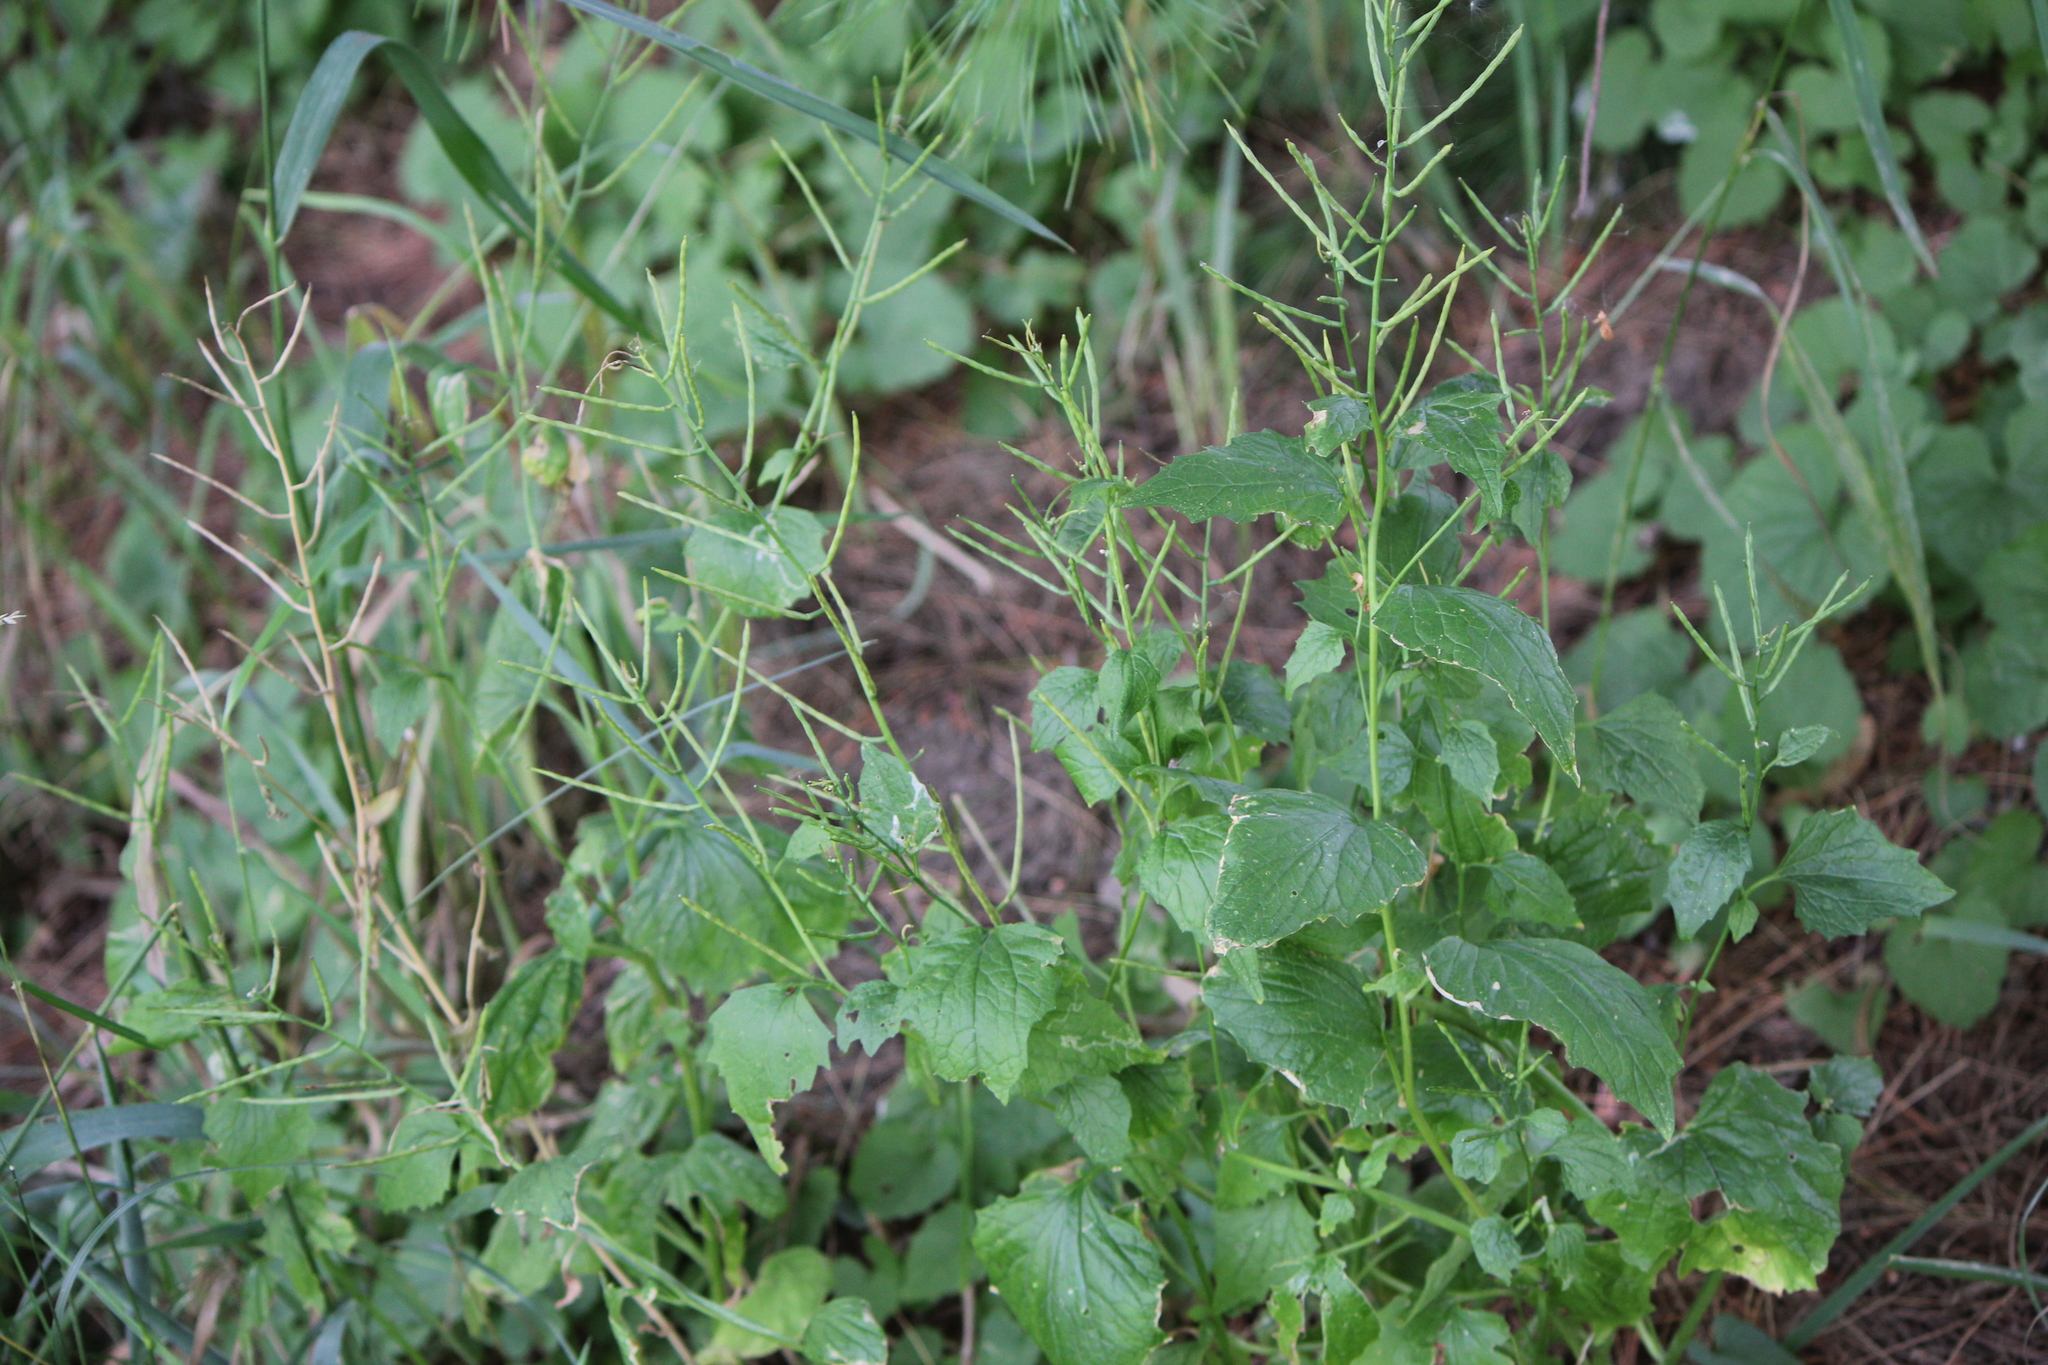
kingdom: Plantae
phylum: Tracheophyta
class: Magnoliopsida
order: Brassicales
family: Brassicaceae
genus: Alliaria
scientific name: Alliaria petiolata
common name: Garlic mustard
